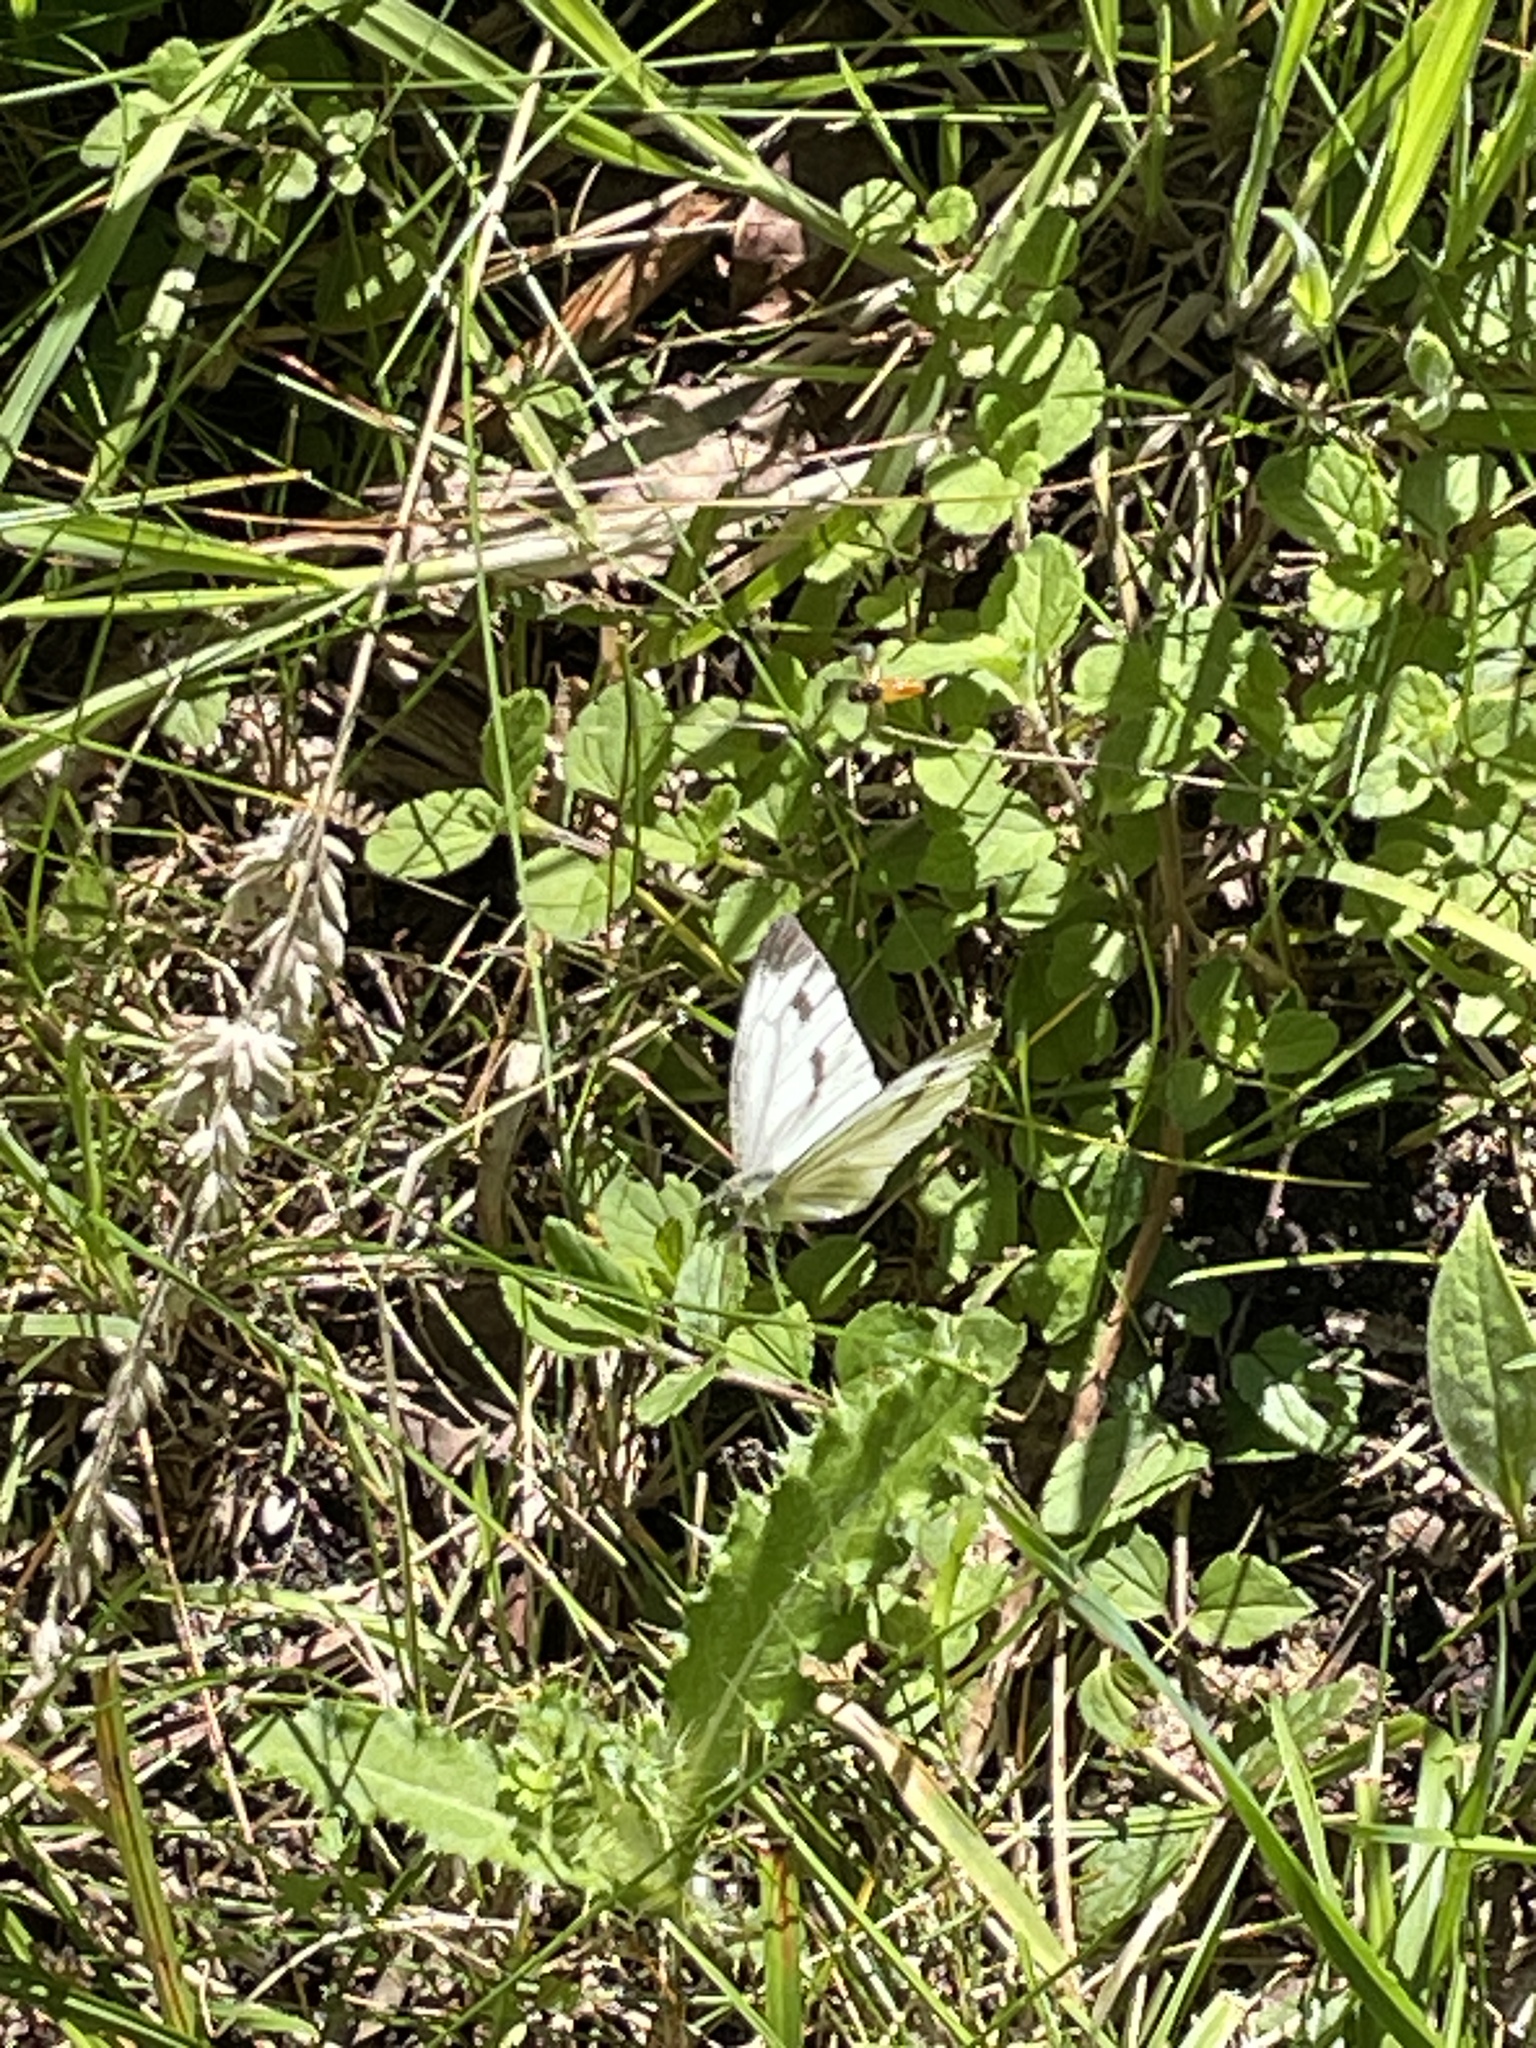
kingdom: Animalia
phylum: Arthropoda
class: Insecta
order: Lepidoptera
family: Pieridae
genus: Pieris
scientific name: Pieris napi
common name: Green-veined white
